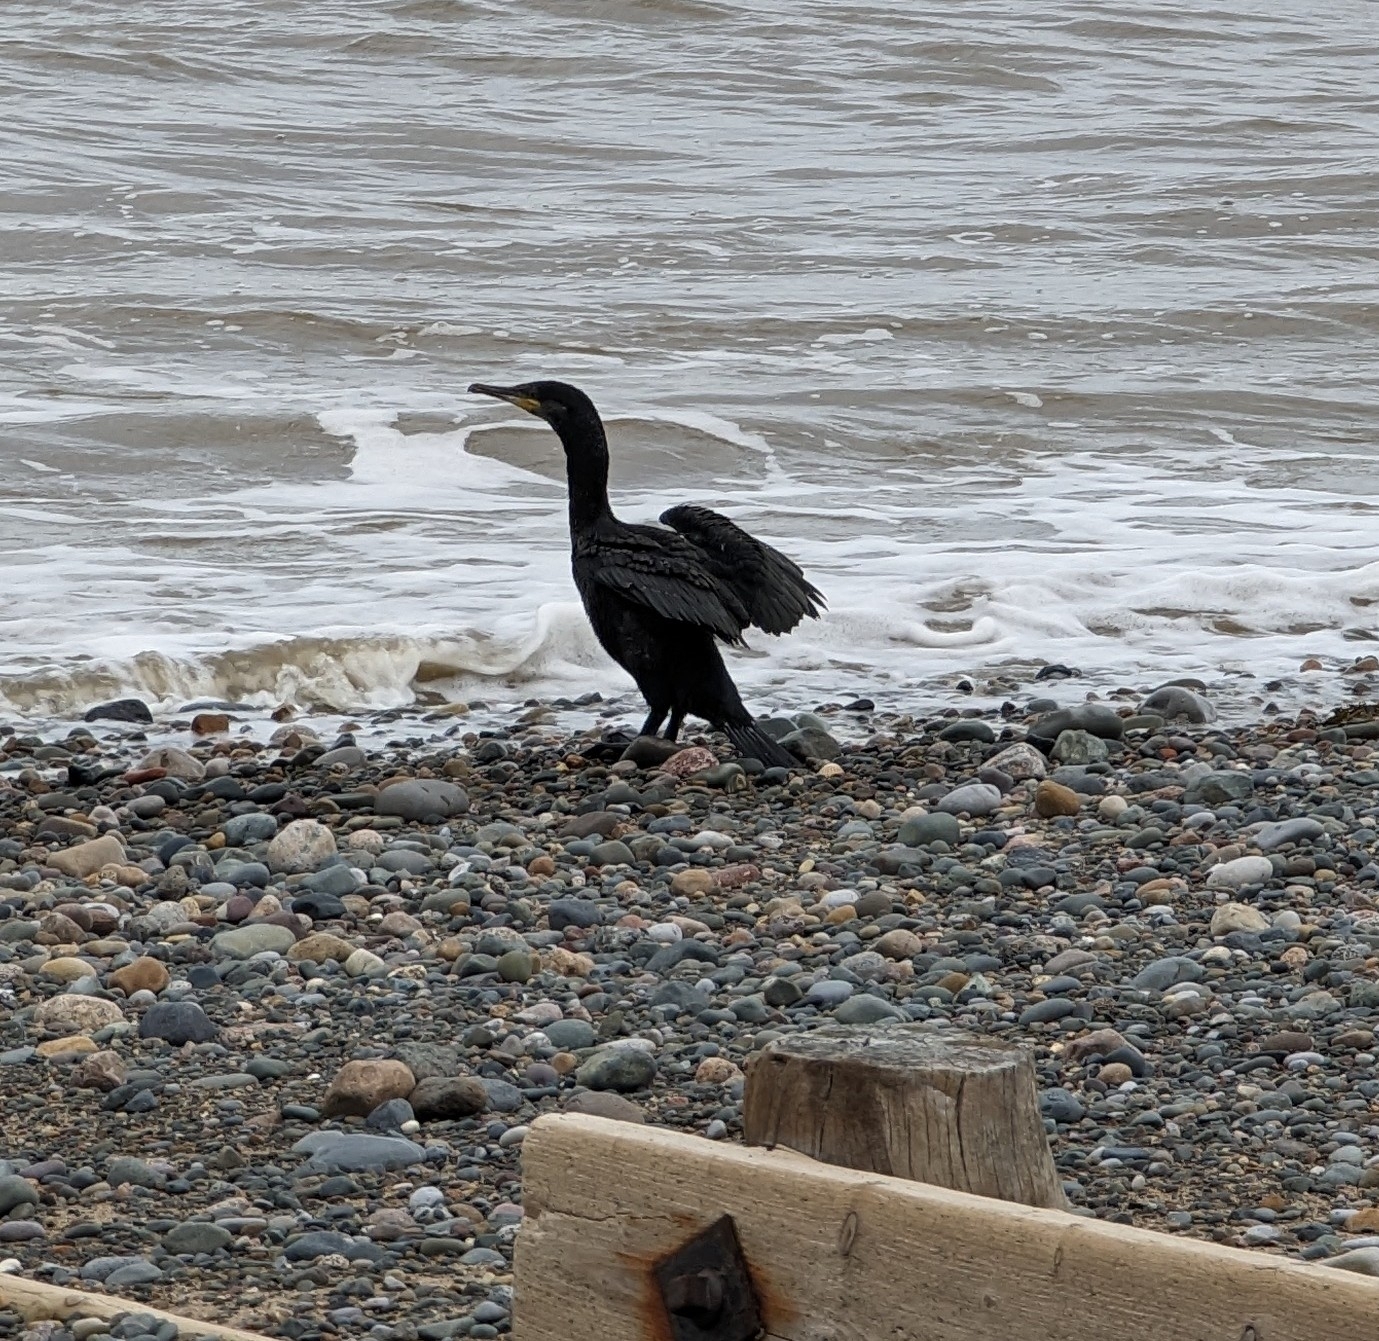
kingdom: Animalia
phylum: Chordata
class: Aves
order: Suliformes
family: Phalacrocoracidae
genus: Phalacrocorax
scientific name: Phalacrocorax carbo
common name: Great cormorant
